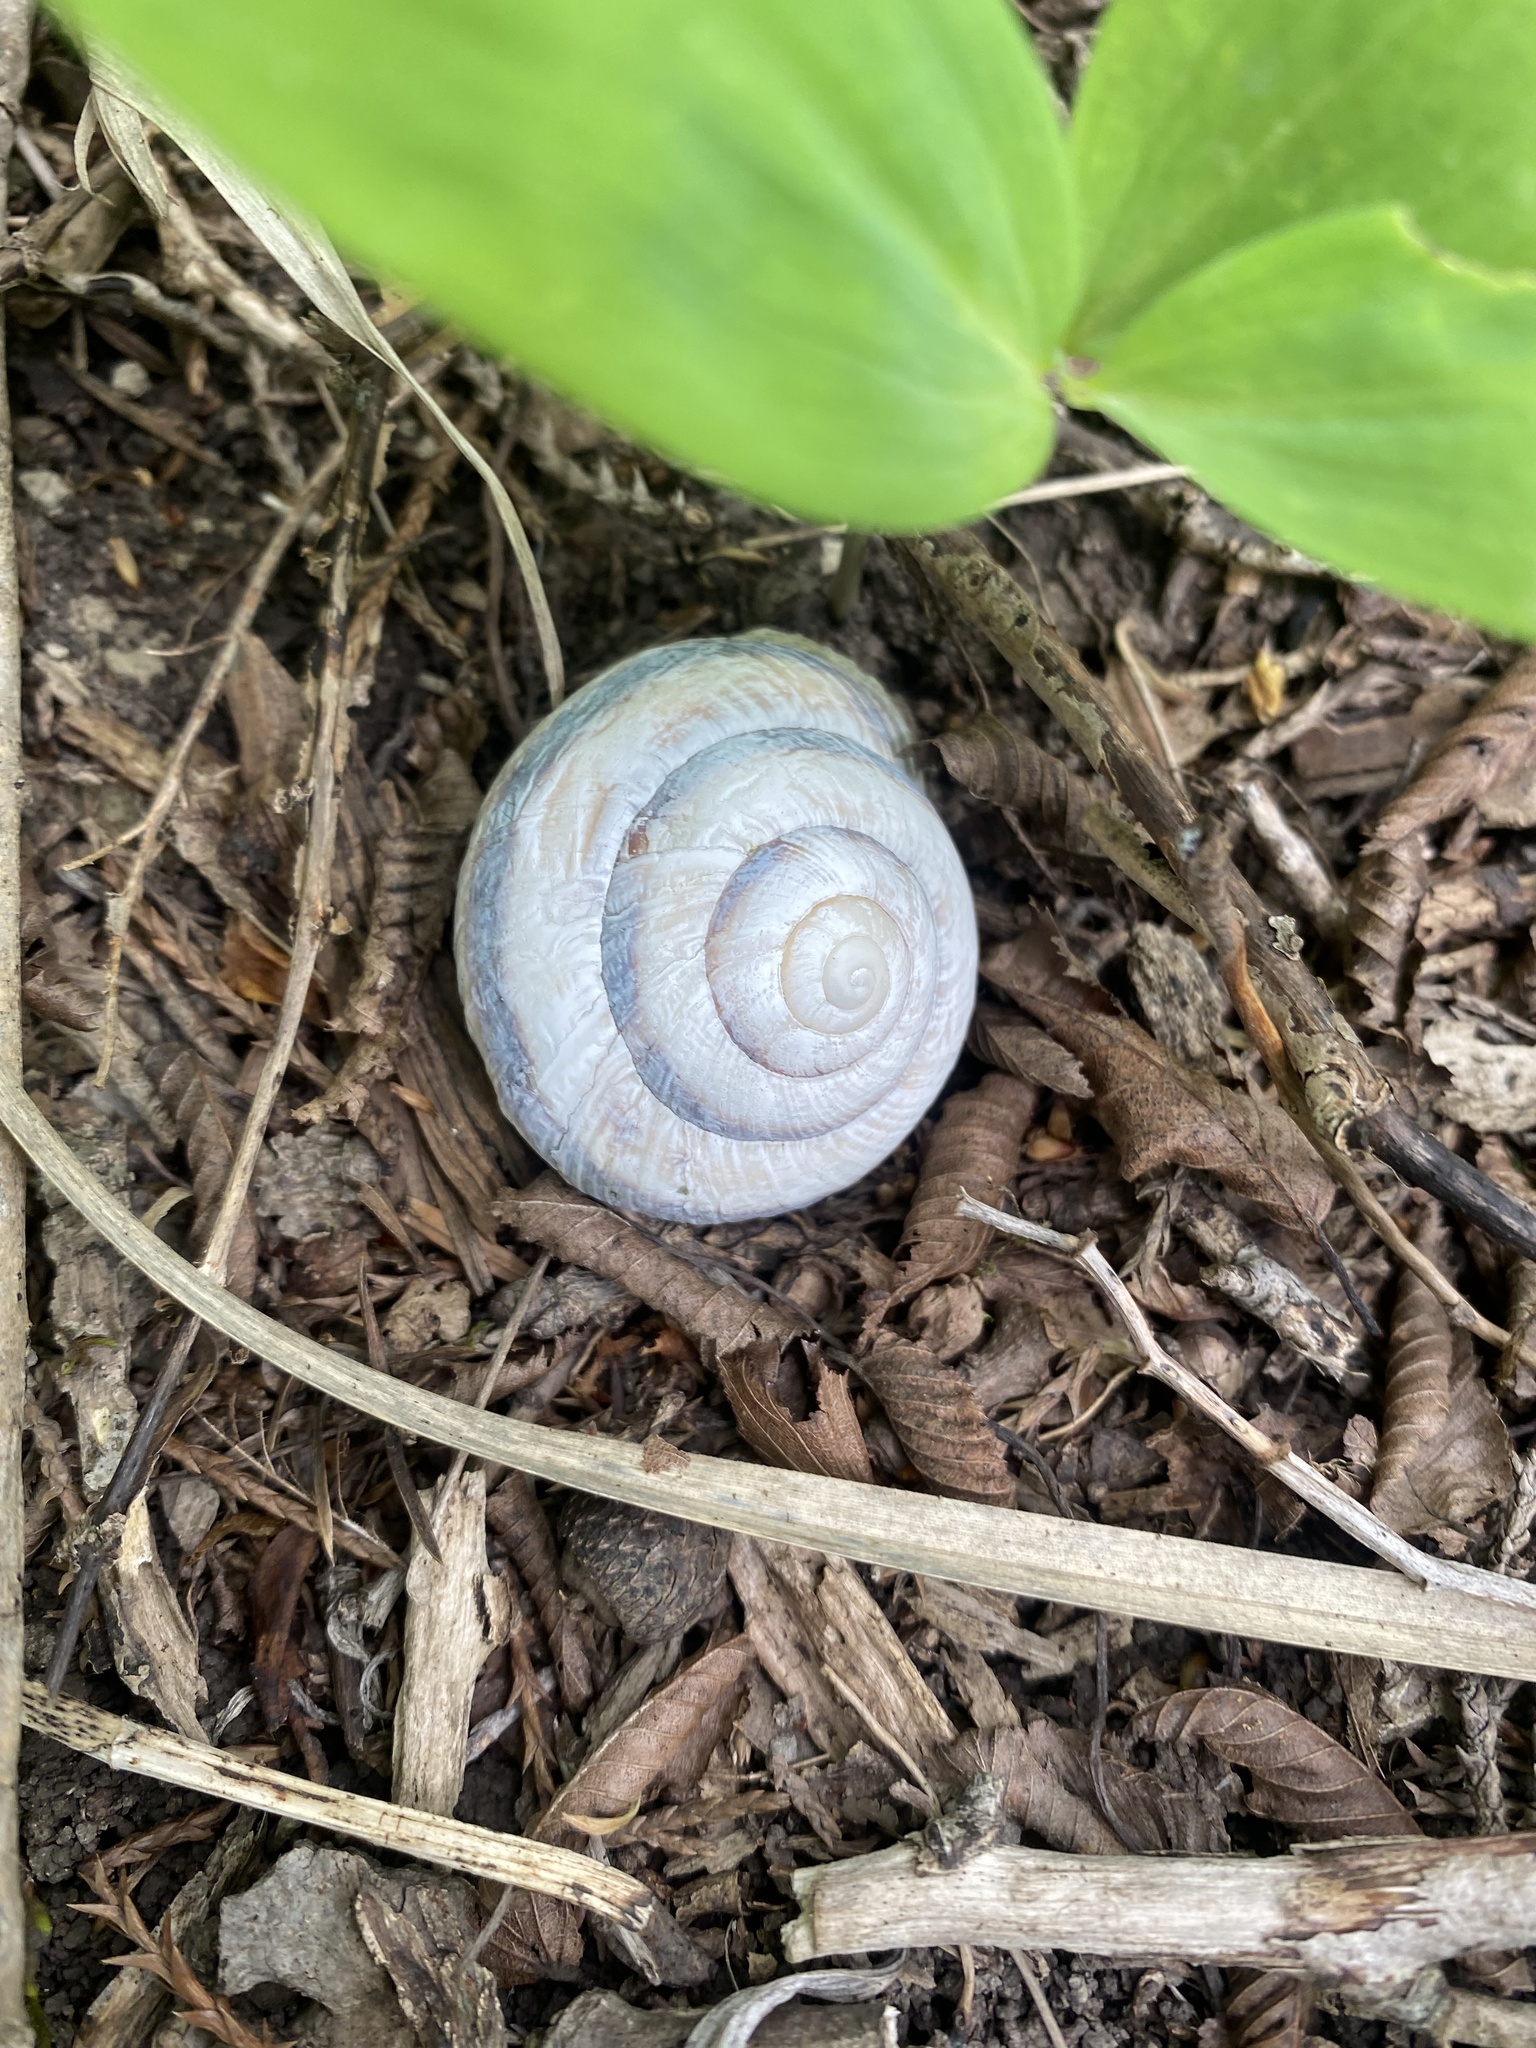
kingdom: Animalia
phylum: Mollusca
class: Gastropoda
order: Stylommatophora
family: Helicidae
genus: Caucasotachea
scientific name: Caucasotachea atrolabiata
